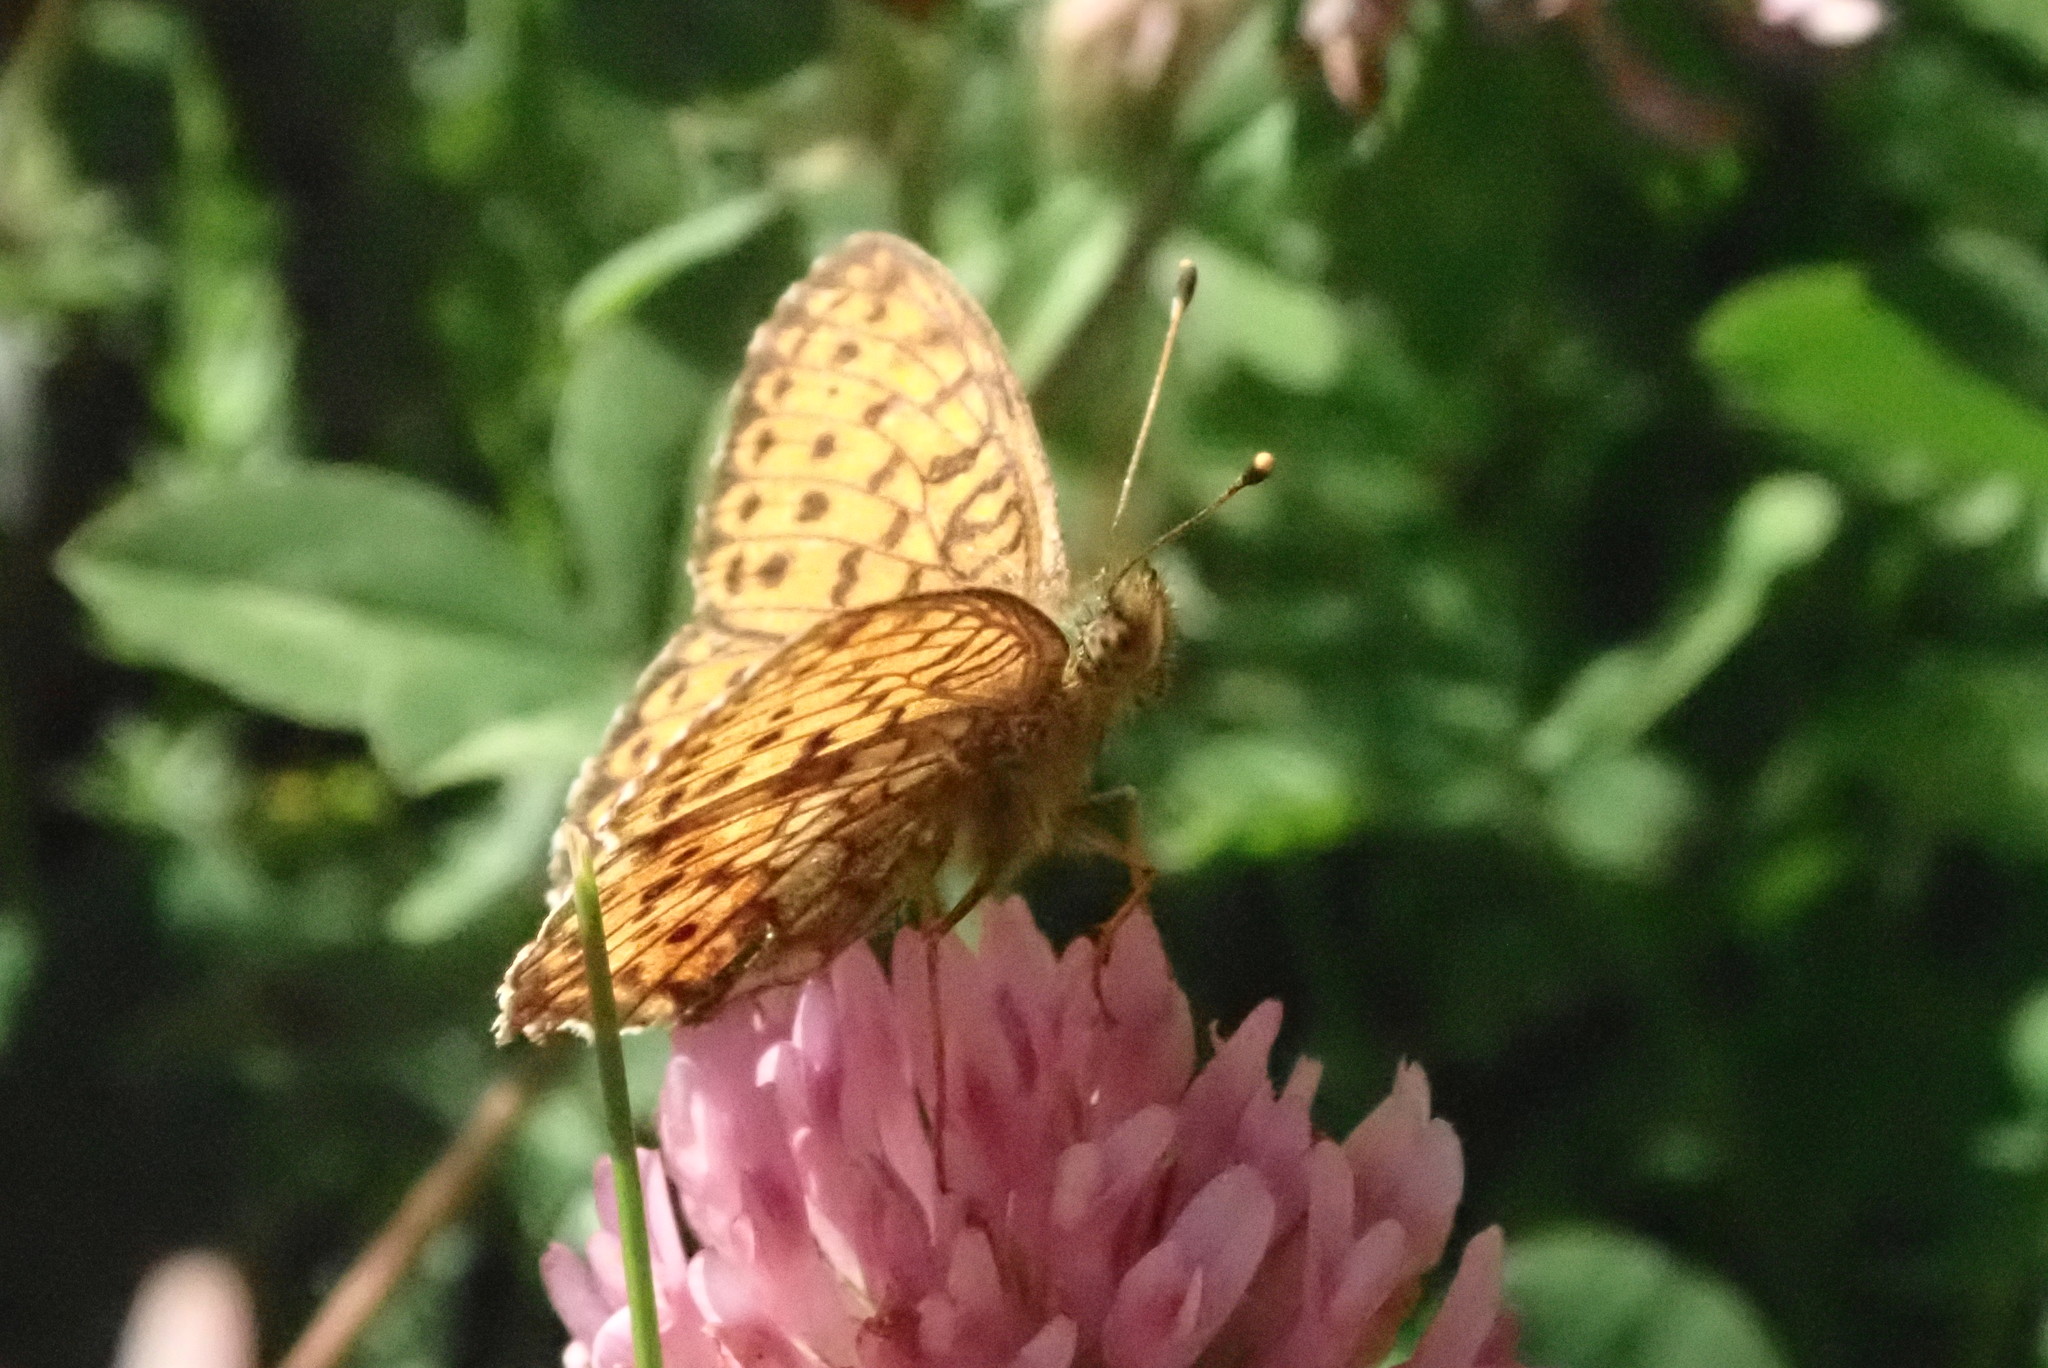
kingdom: Animalia
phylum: Arthropoda
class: Insecta
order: Lepidoptera
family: Nymphalidae
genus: Brenthis
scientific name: Brenthis ino
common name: Lesser marbled fritillary
